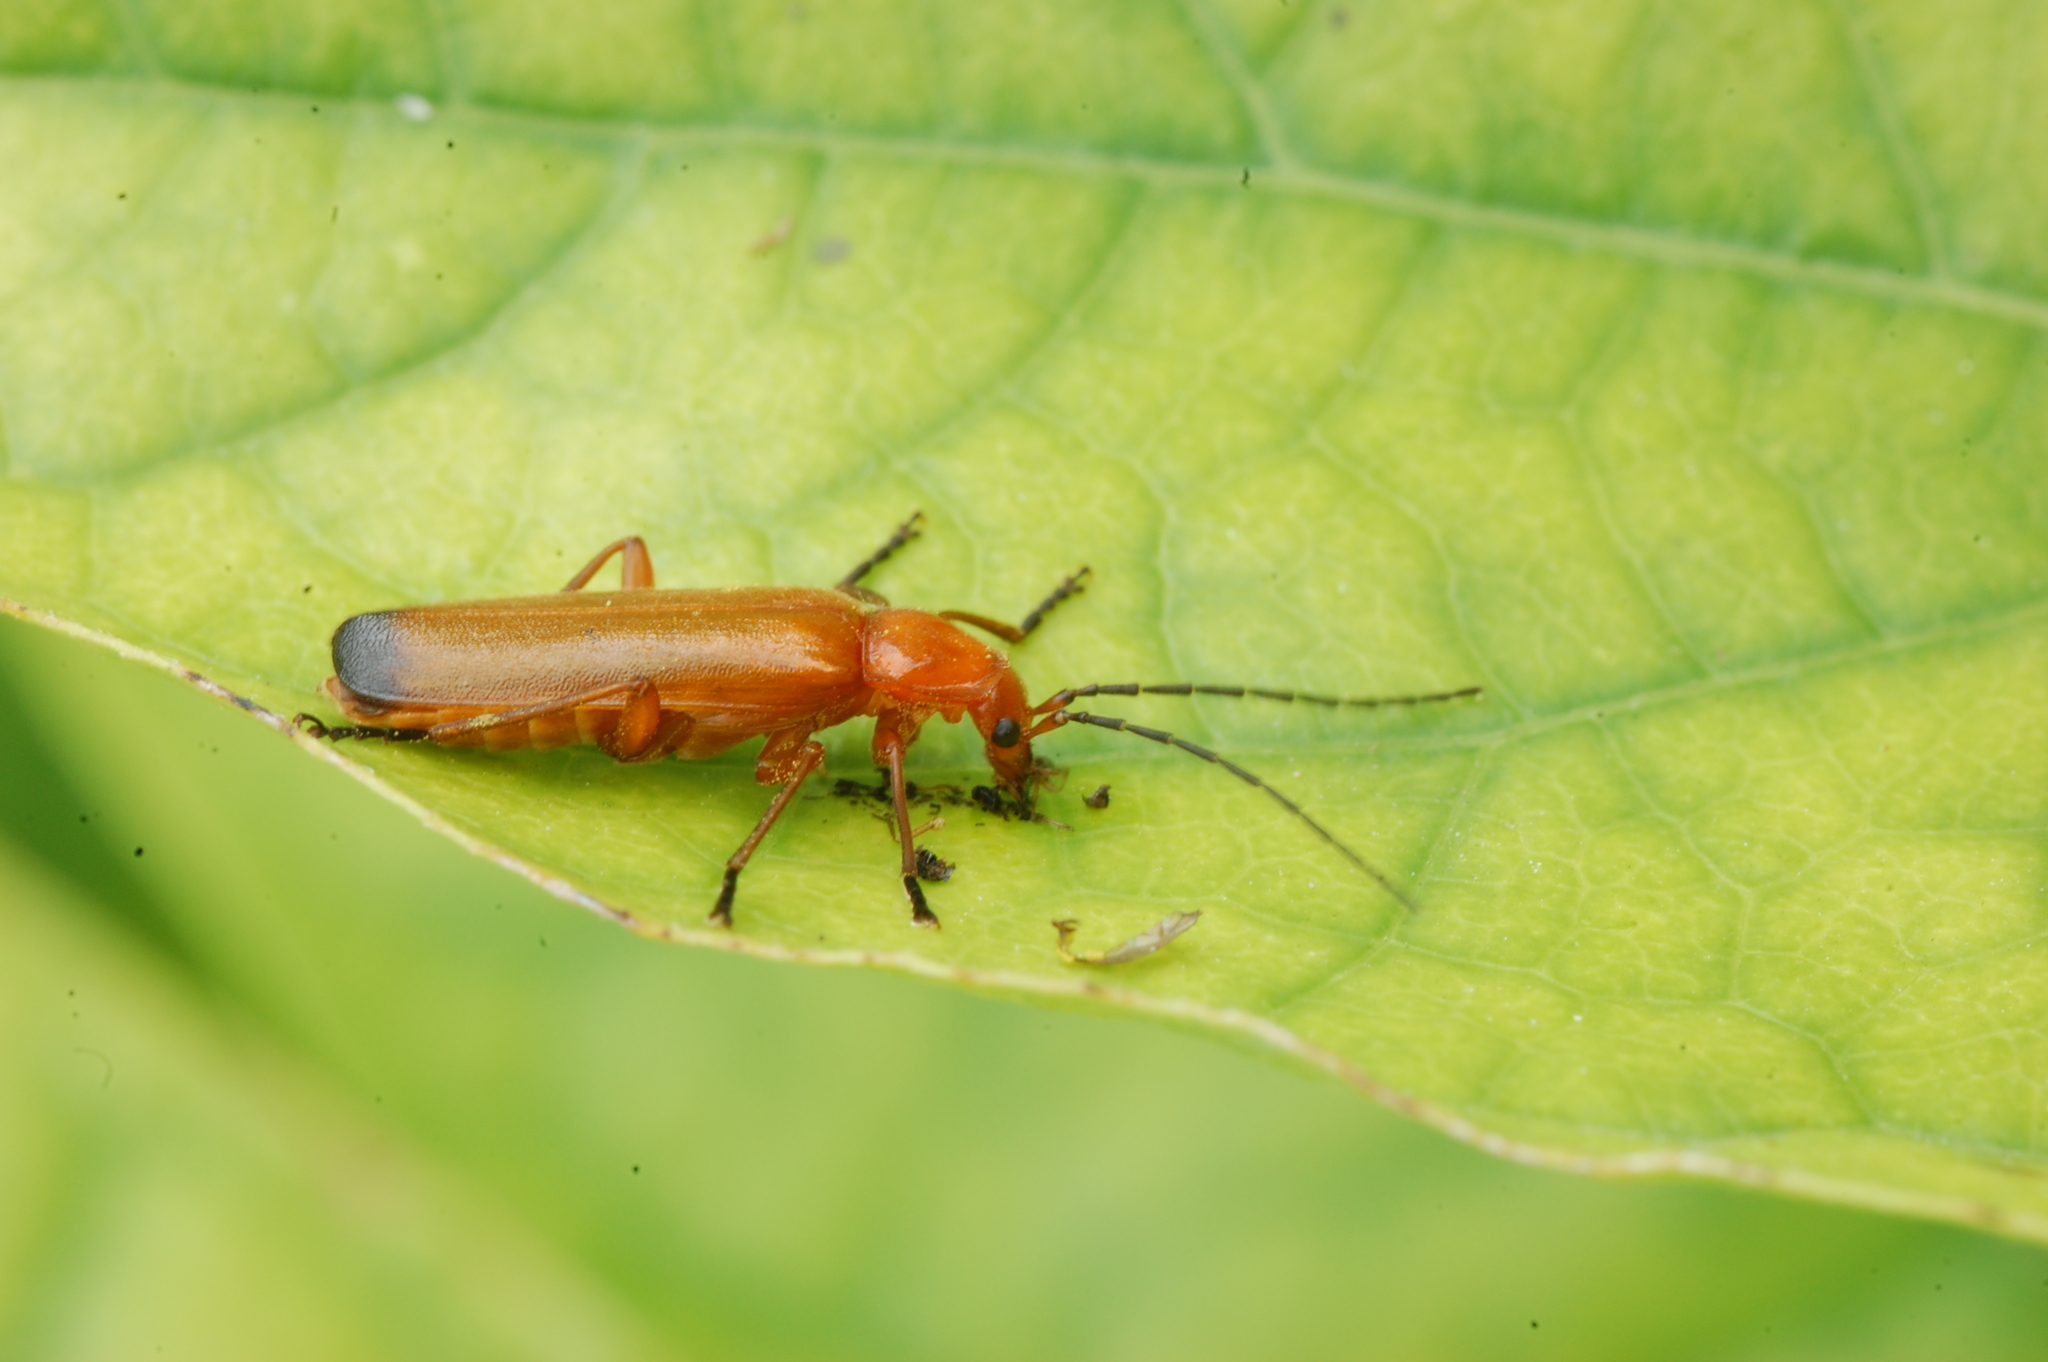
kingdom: Animalia
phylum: Arthropoda
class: Insecta
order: Coleoptera
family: Cantharidae
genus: Rhagonycha
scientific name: Rhagonycha fulva
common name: Common red soldier beetle
